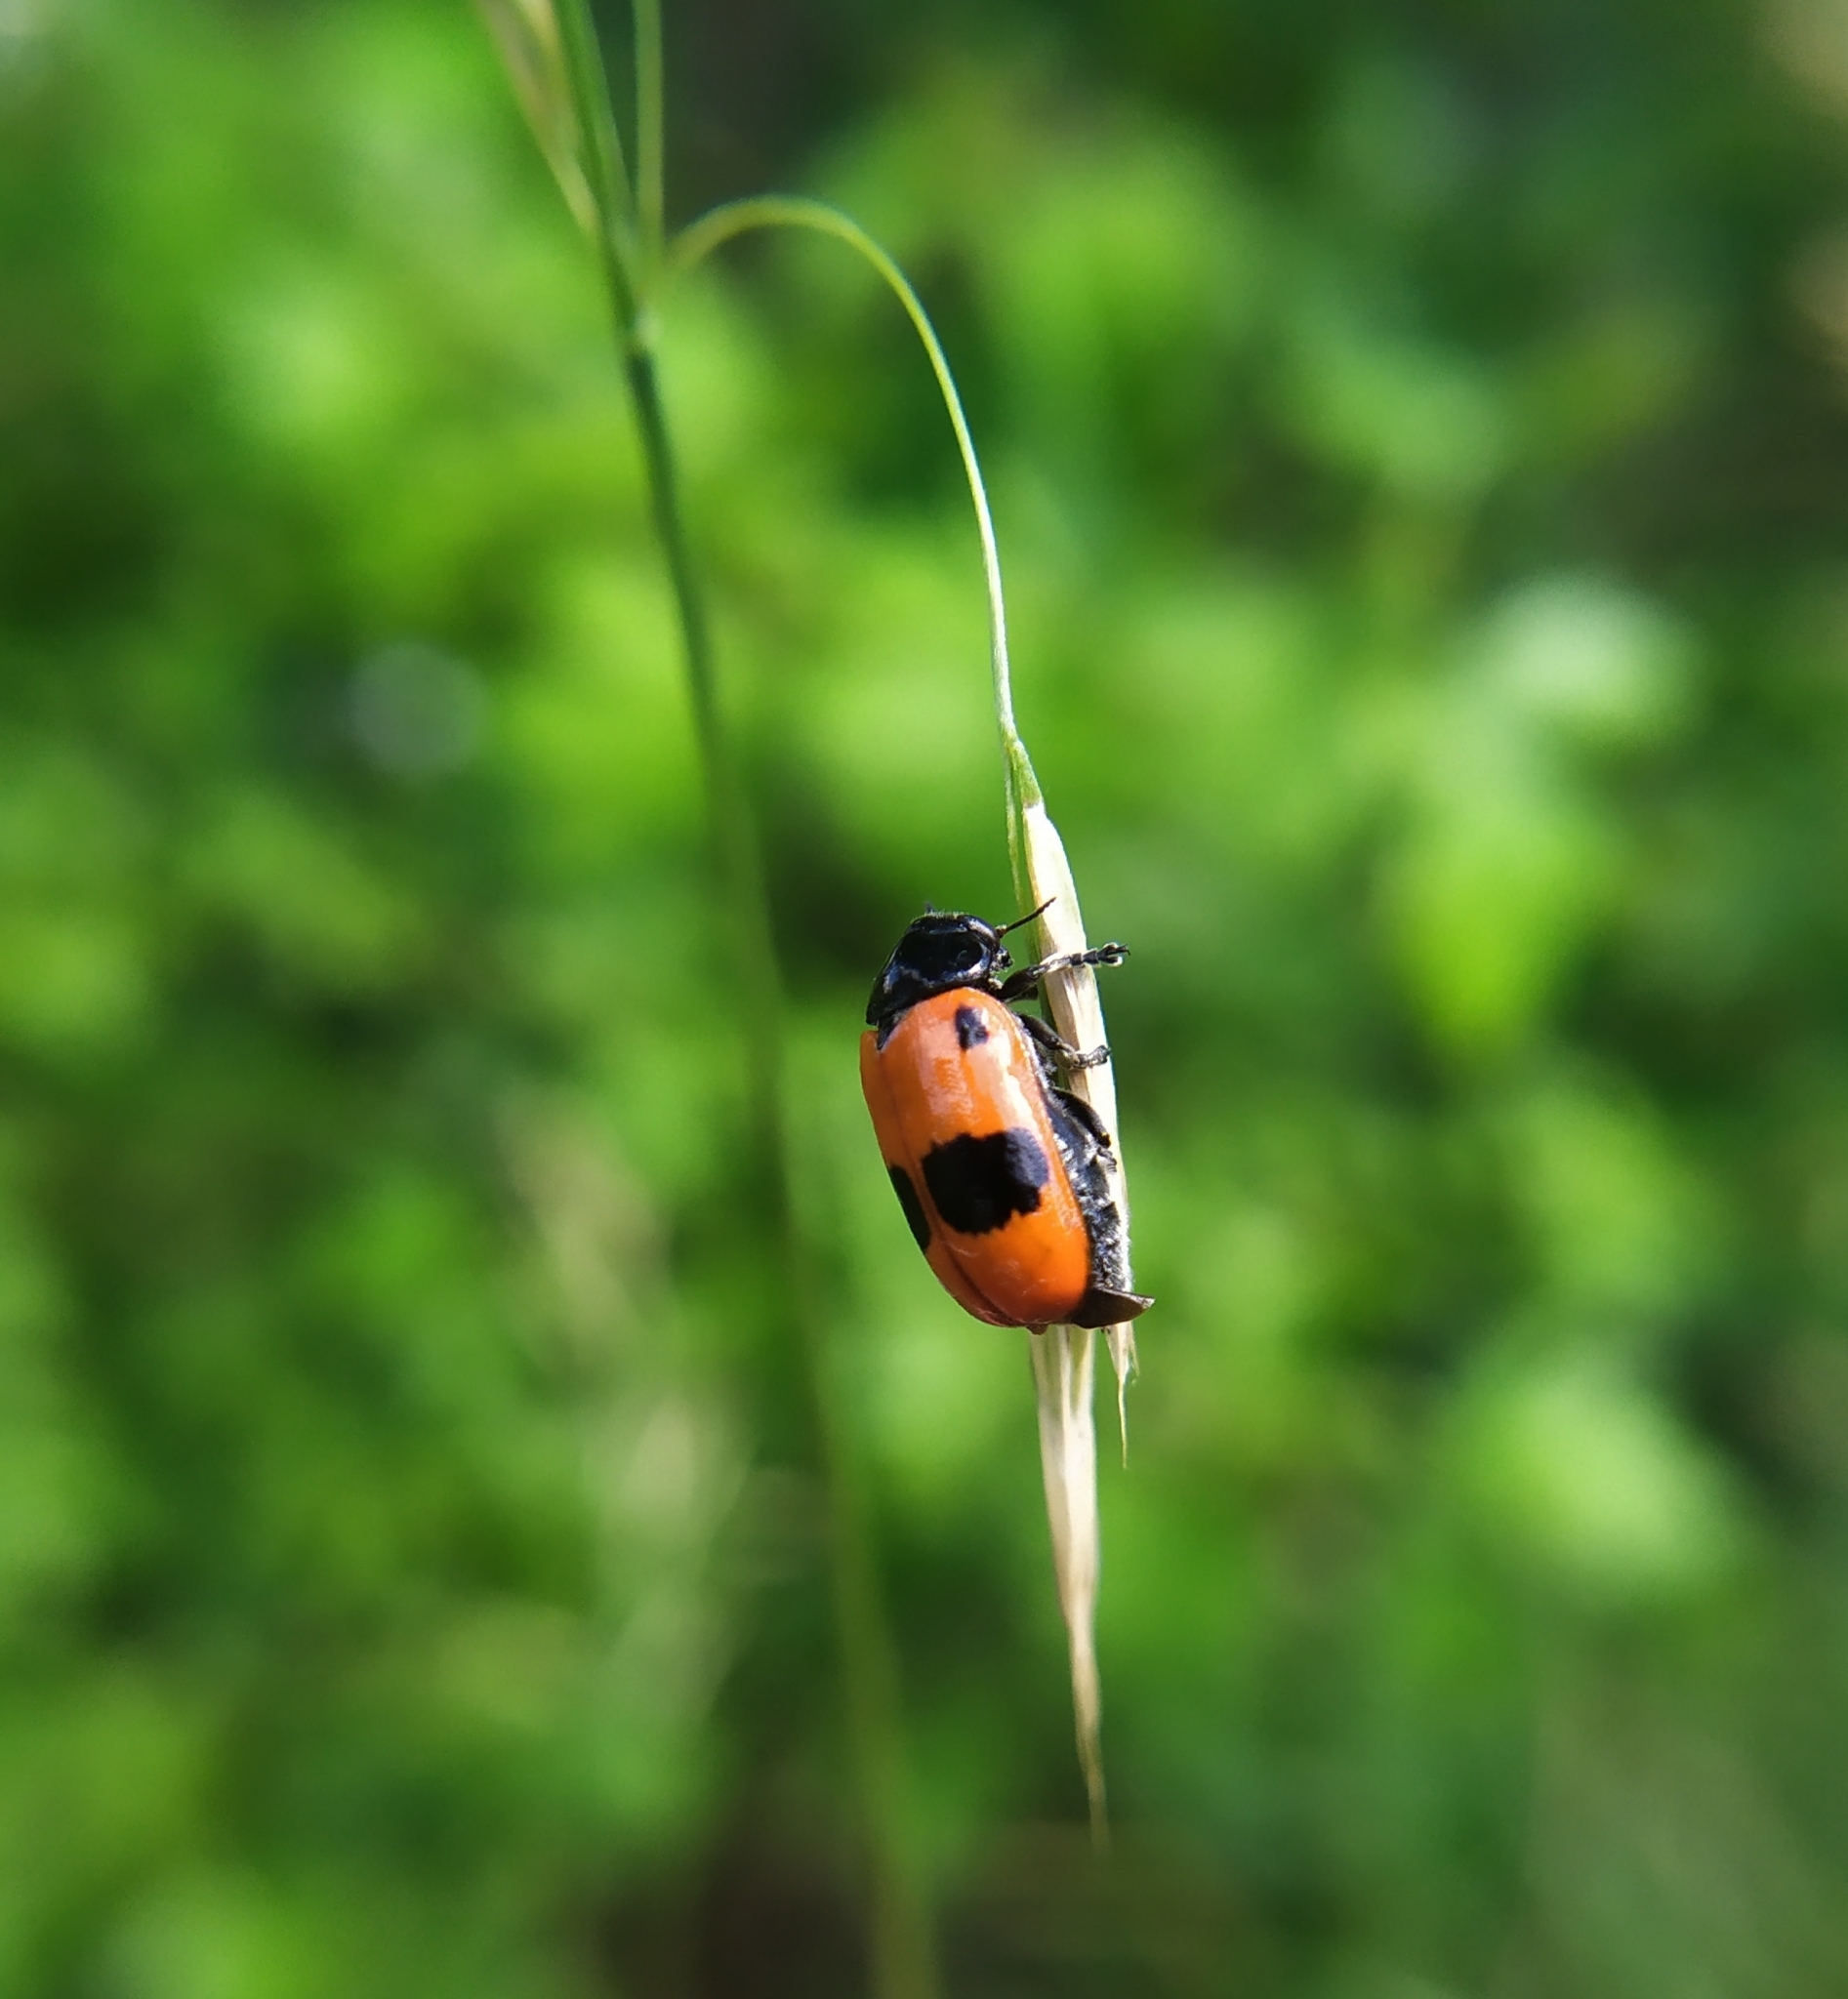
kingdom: Animalia
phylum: Arthropoda
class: Insecta
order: Coleoptera
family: Chrysomelidae
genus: Clytra
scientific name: Clytra laeviuscula
